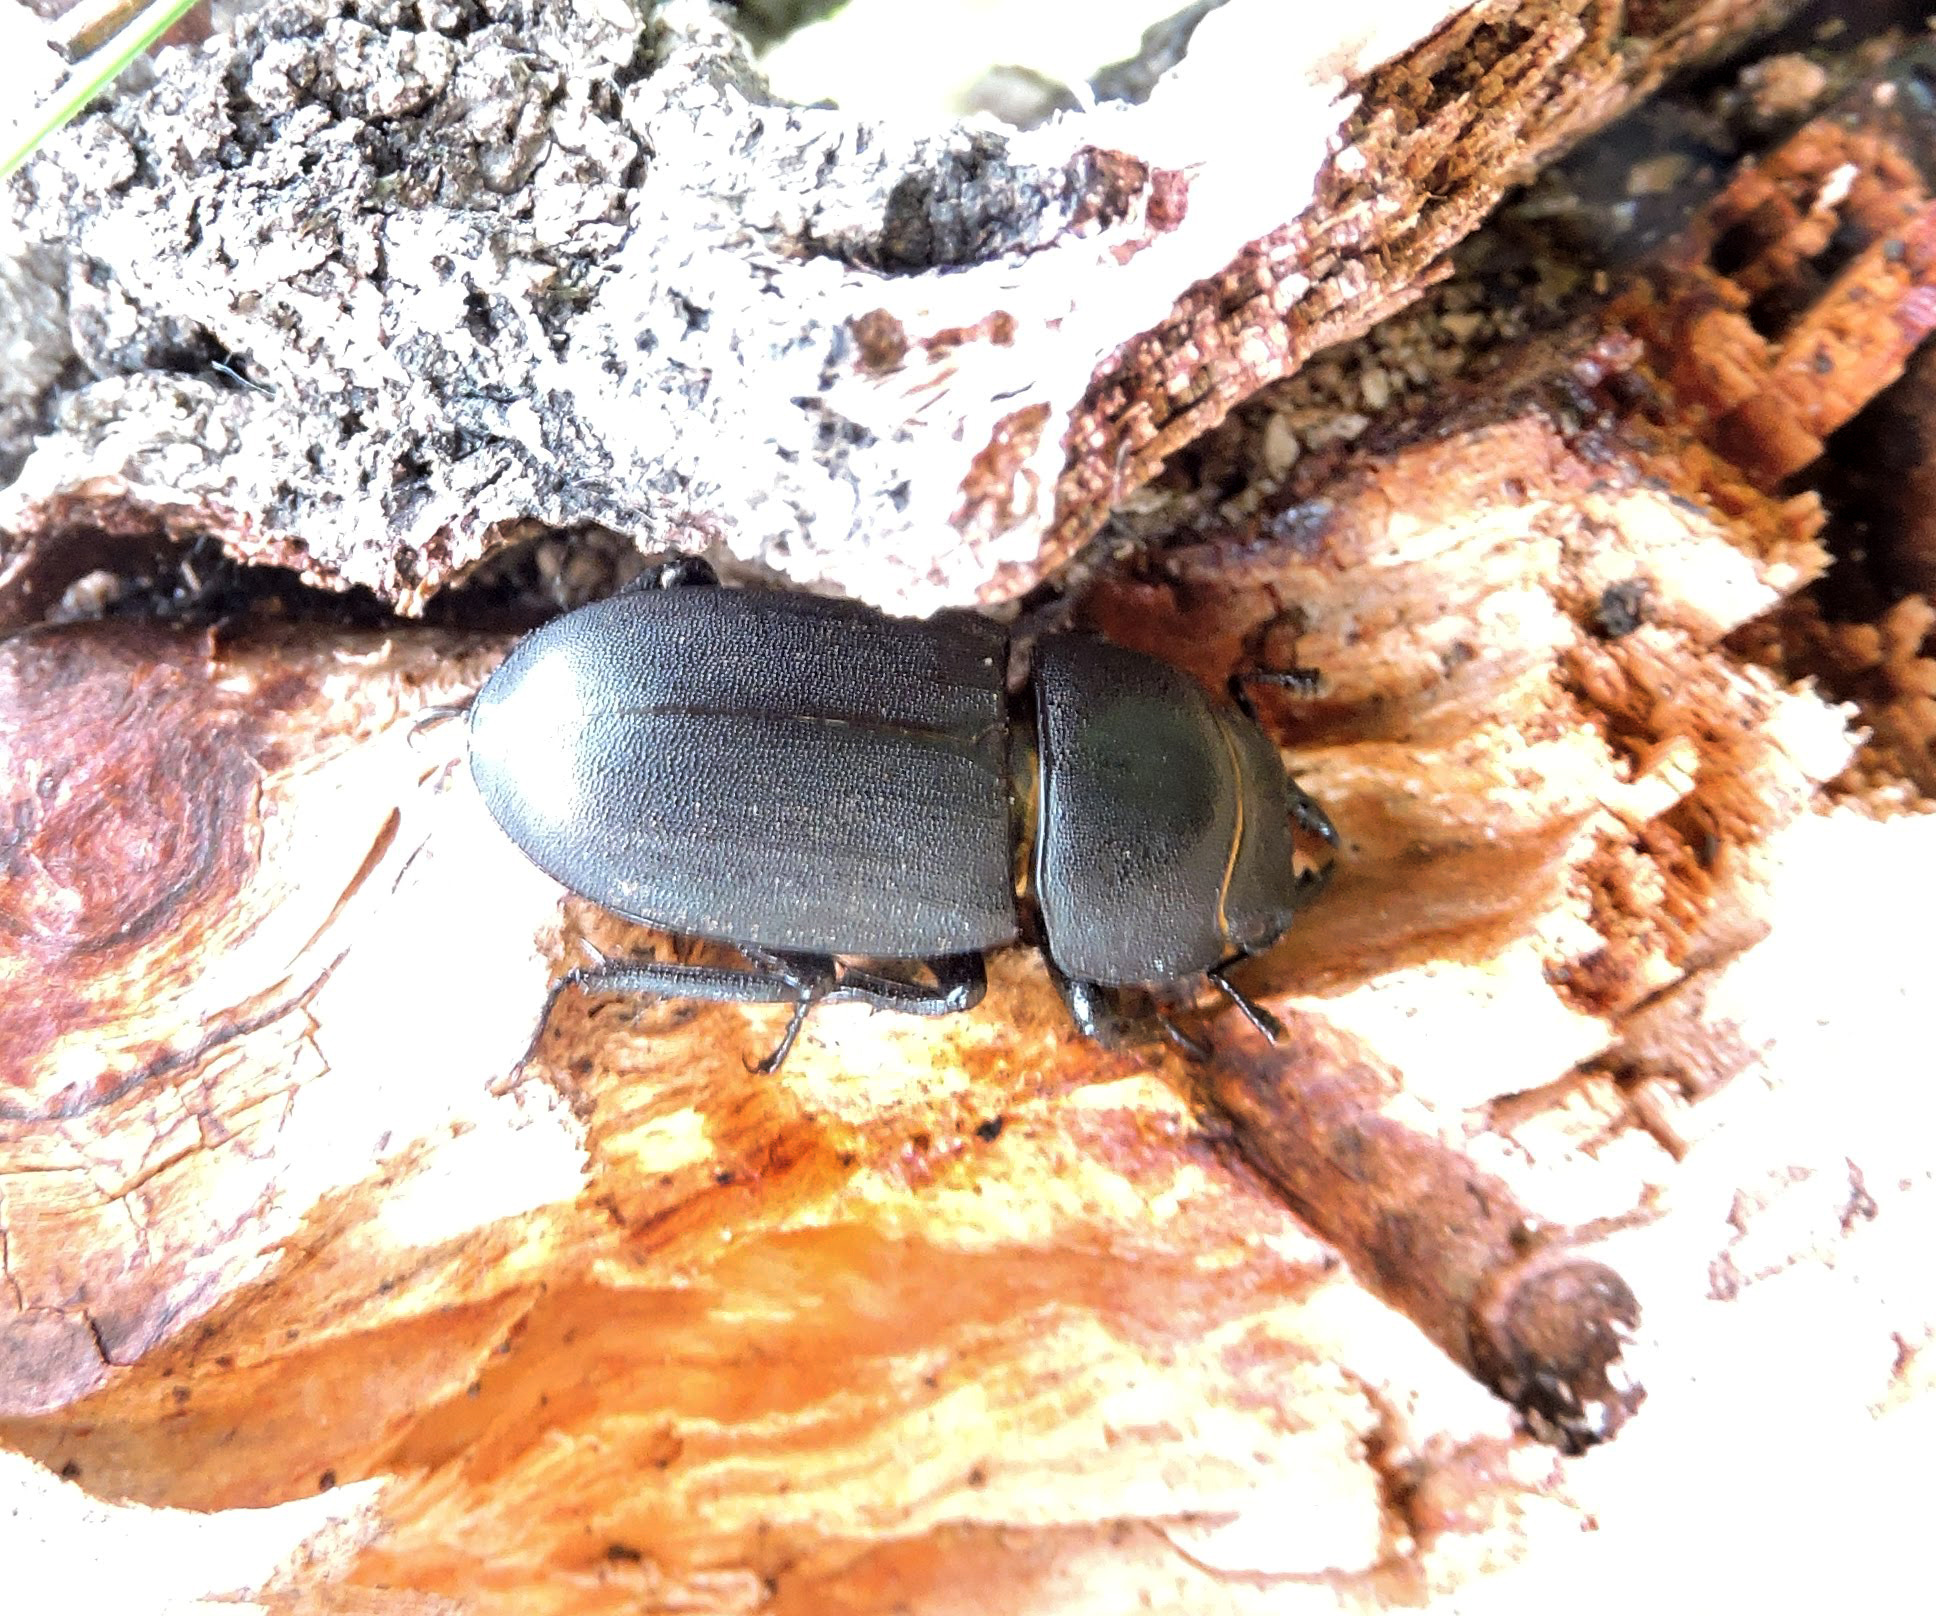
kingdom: Animalia
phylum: Arthropoda
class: Insecta
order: Coleoptera
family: Lucanidae
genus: Dorcus
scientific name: Dorcus parallelipipedus
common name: Lesser stag beetle
